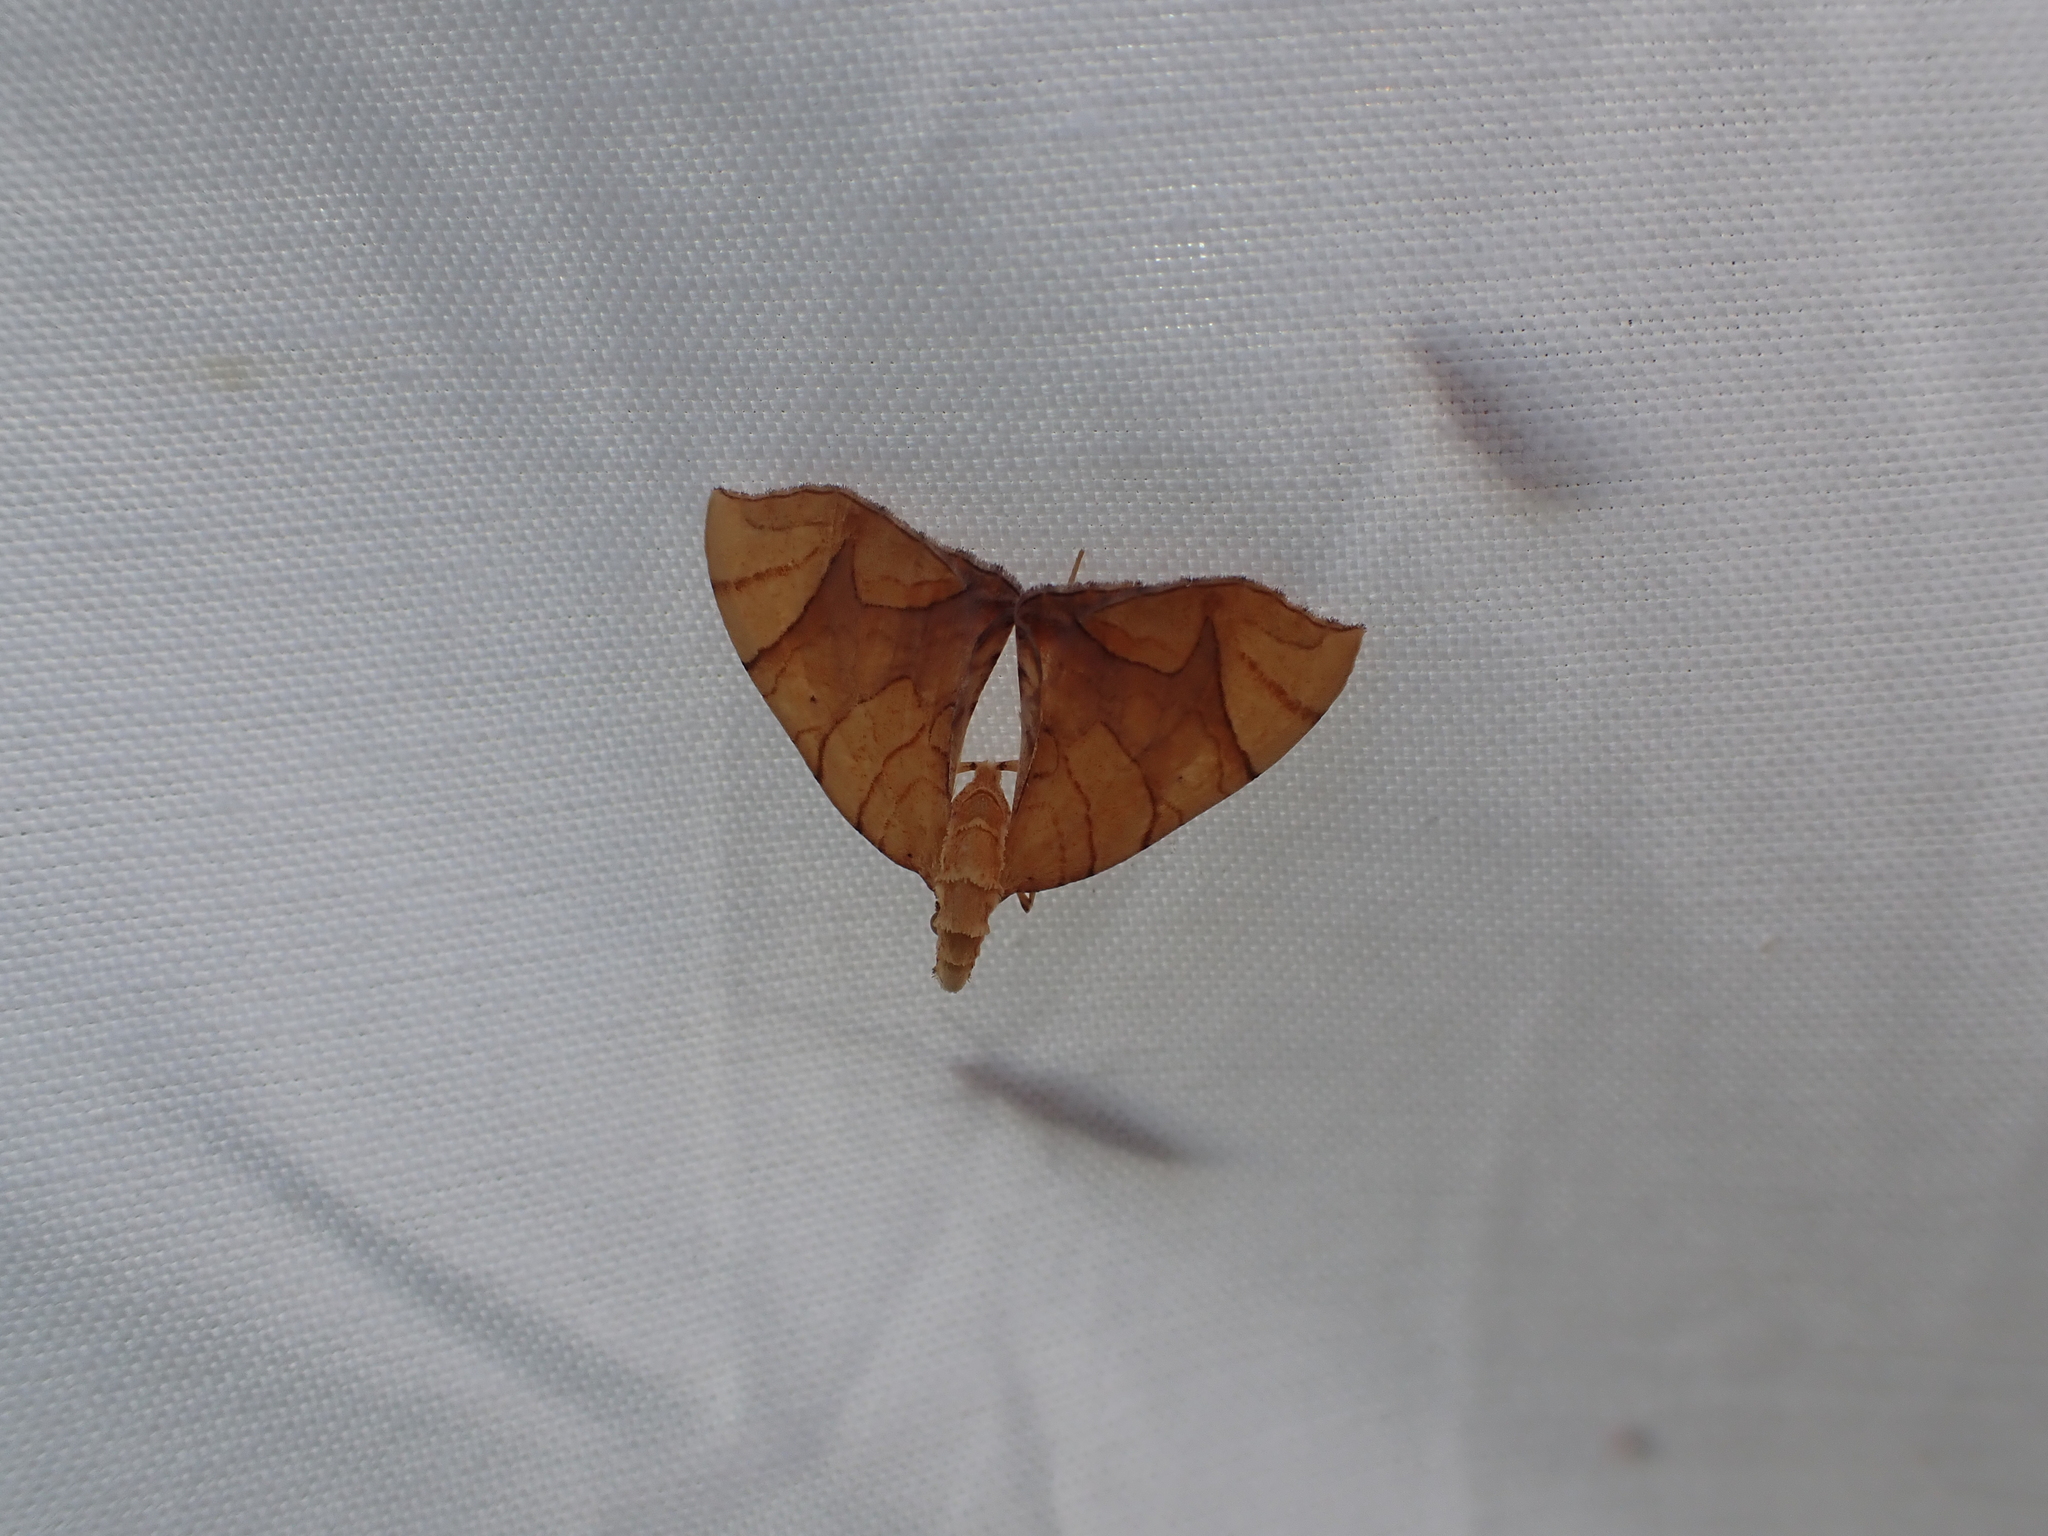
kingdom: Animalia
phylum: Arthropoda
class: Insecta
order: Lepidoptera
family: Geometridae
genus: Eulithis
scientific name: Eulithis
